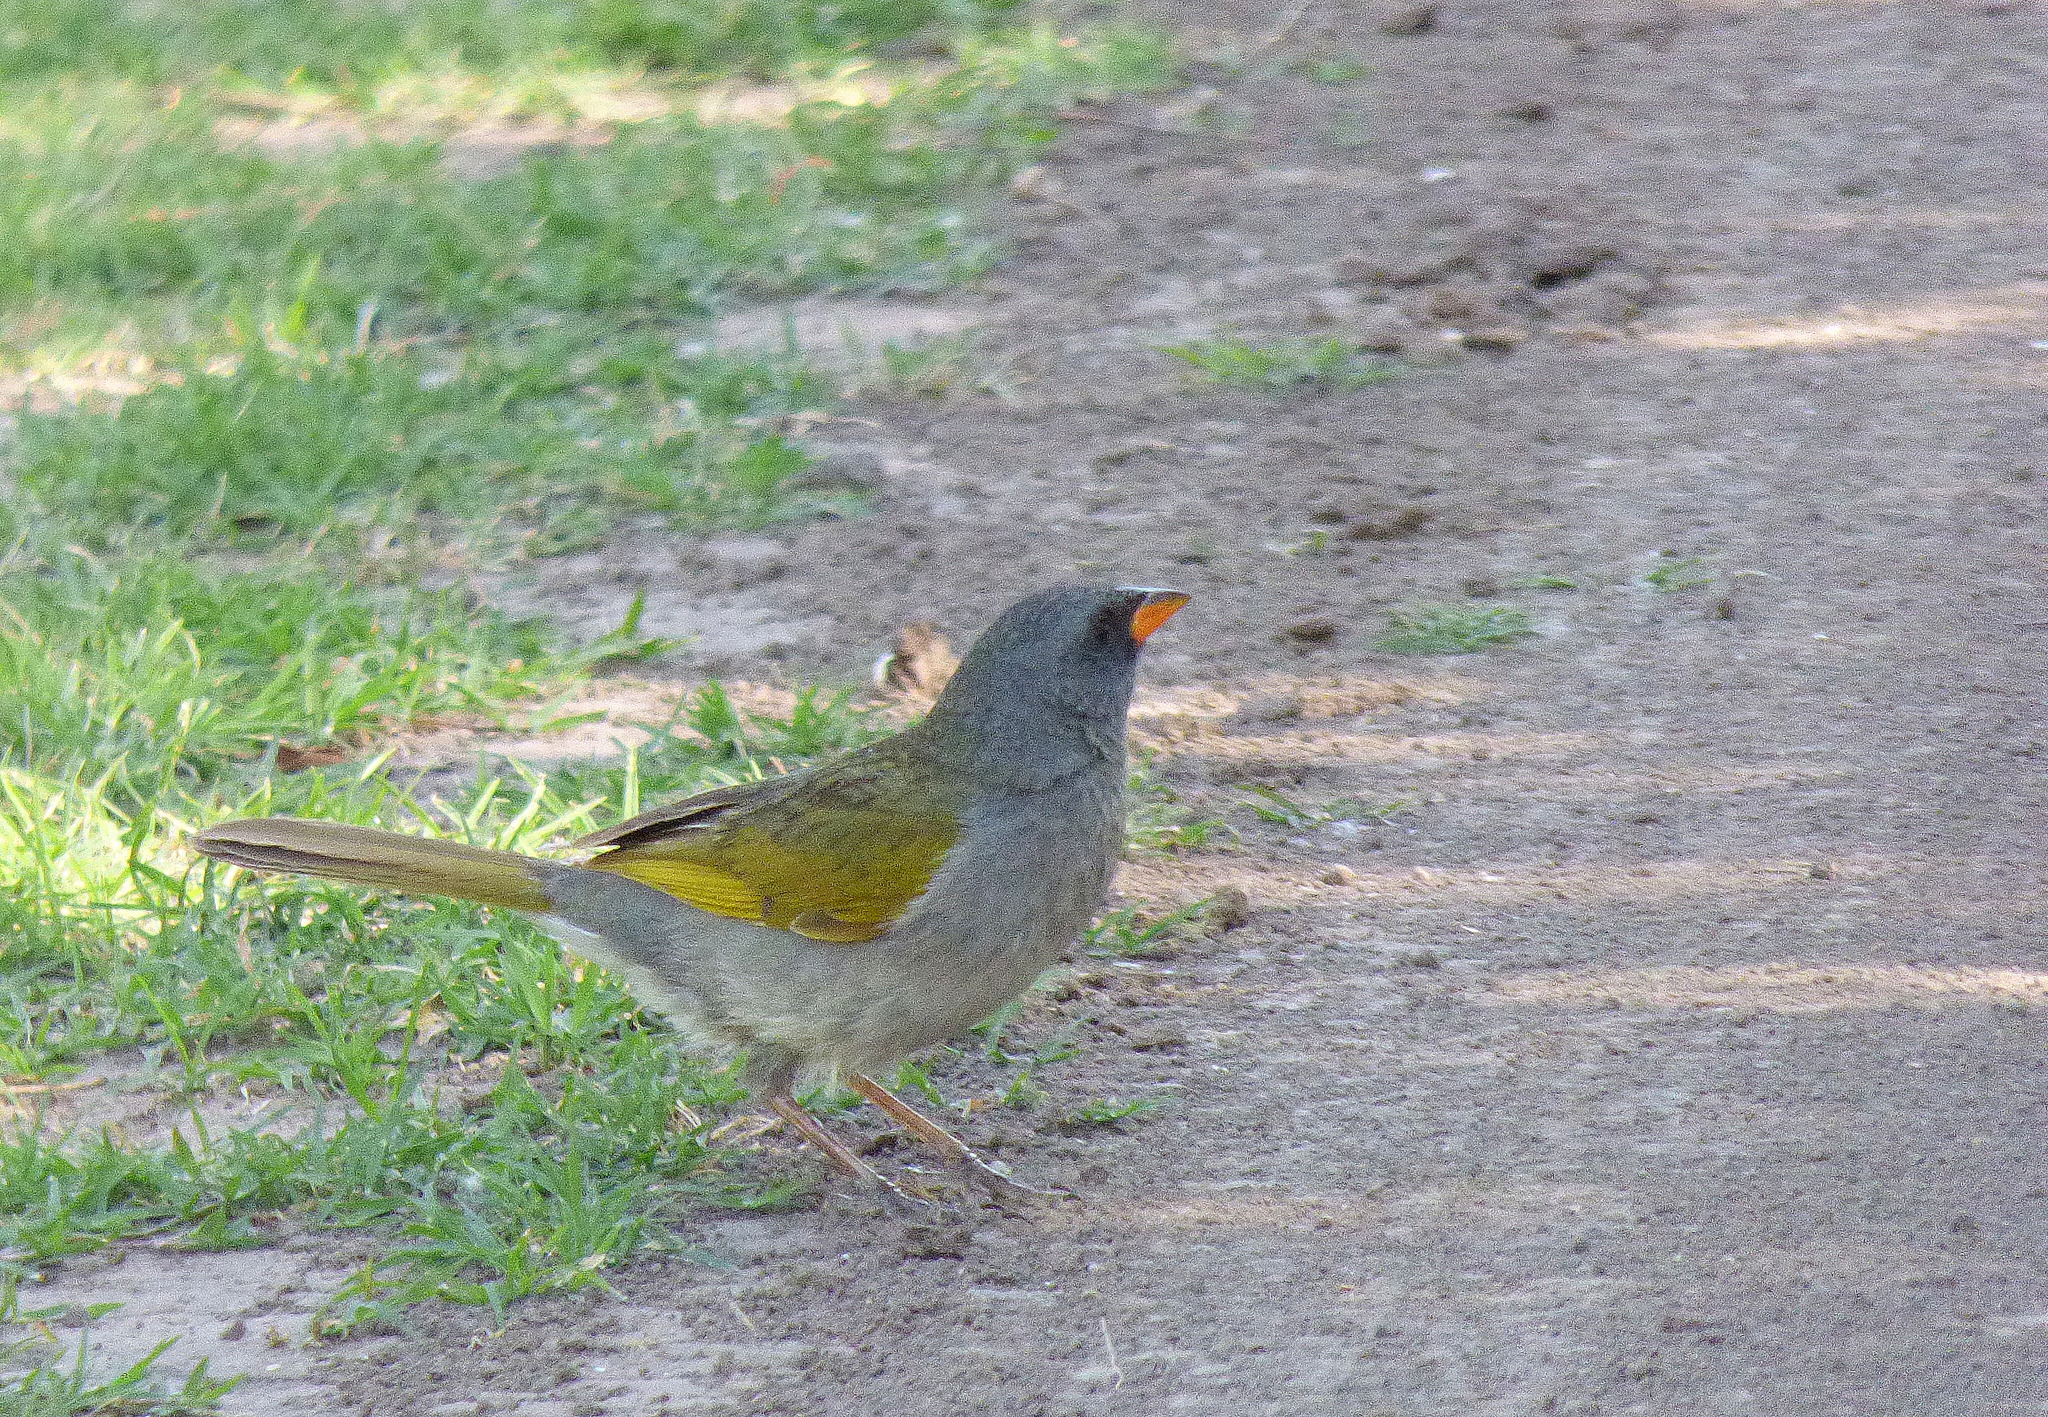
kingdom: Animalia
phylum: Chordata
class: Aves
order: Passeriformes
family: Thraupidae
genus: Embernagra
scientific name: Embernagra platensis
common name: Pampa finch
